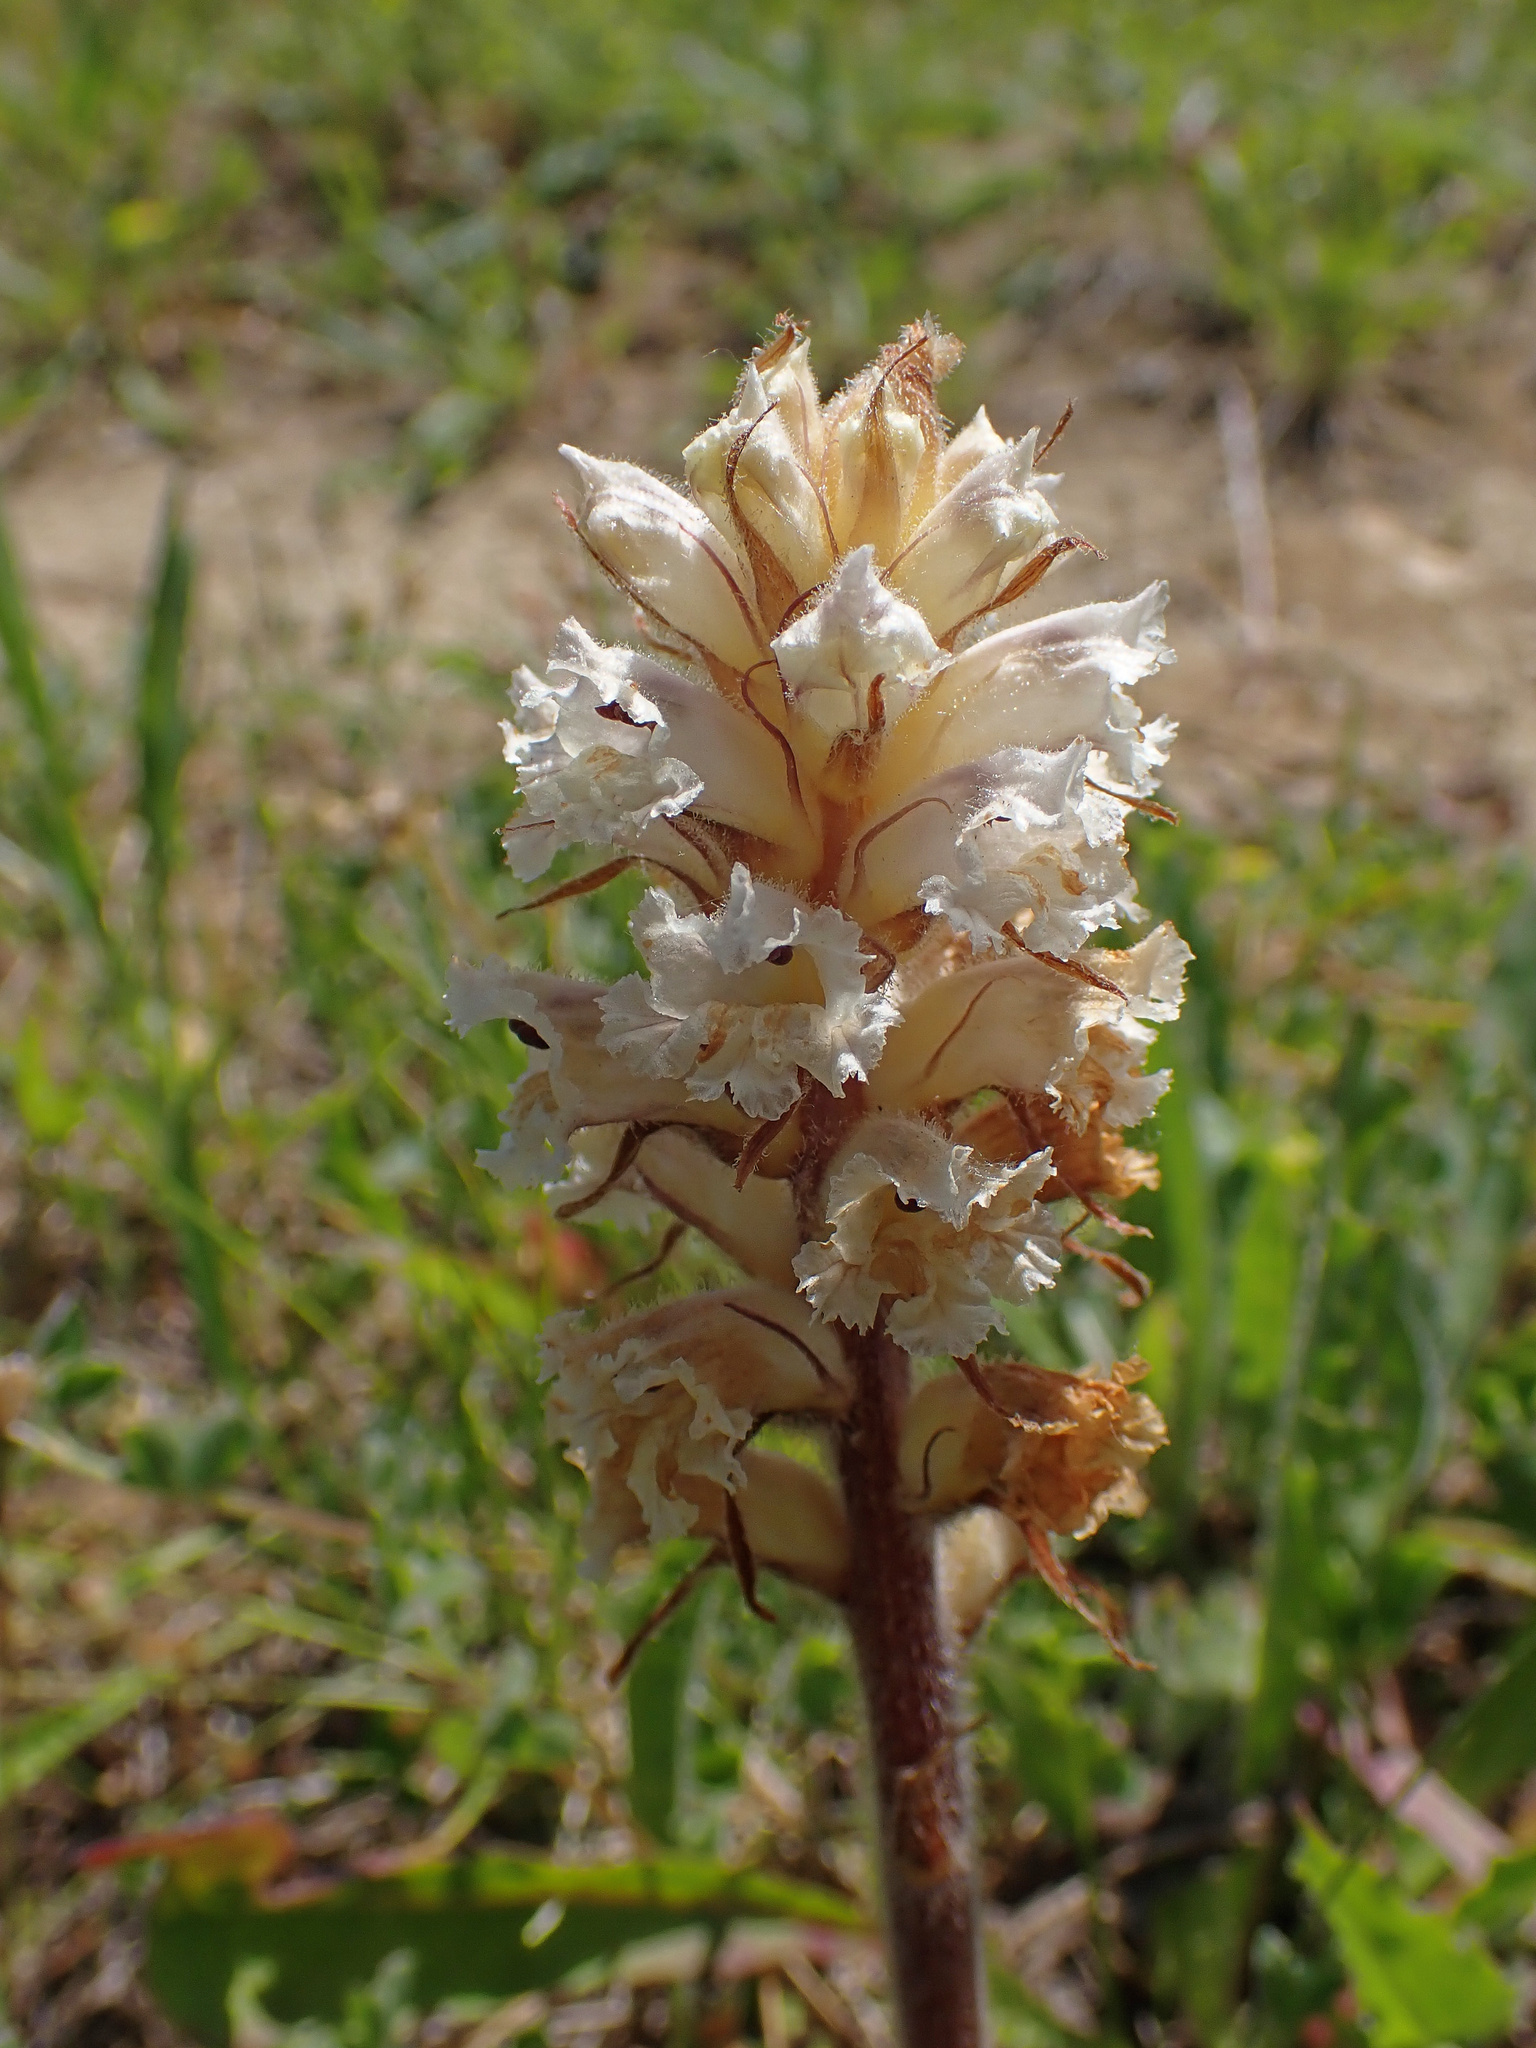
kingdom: Plantae
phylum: Tracheophyta
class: Magnoliopsida
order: Lamiales
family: Orobanchaceae
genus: Orobanche
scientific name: Orobanche picridis
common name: Oxtongue broomrape
